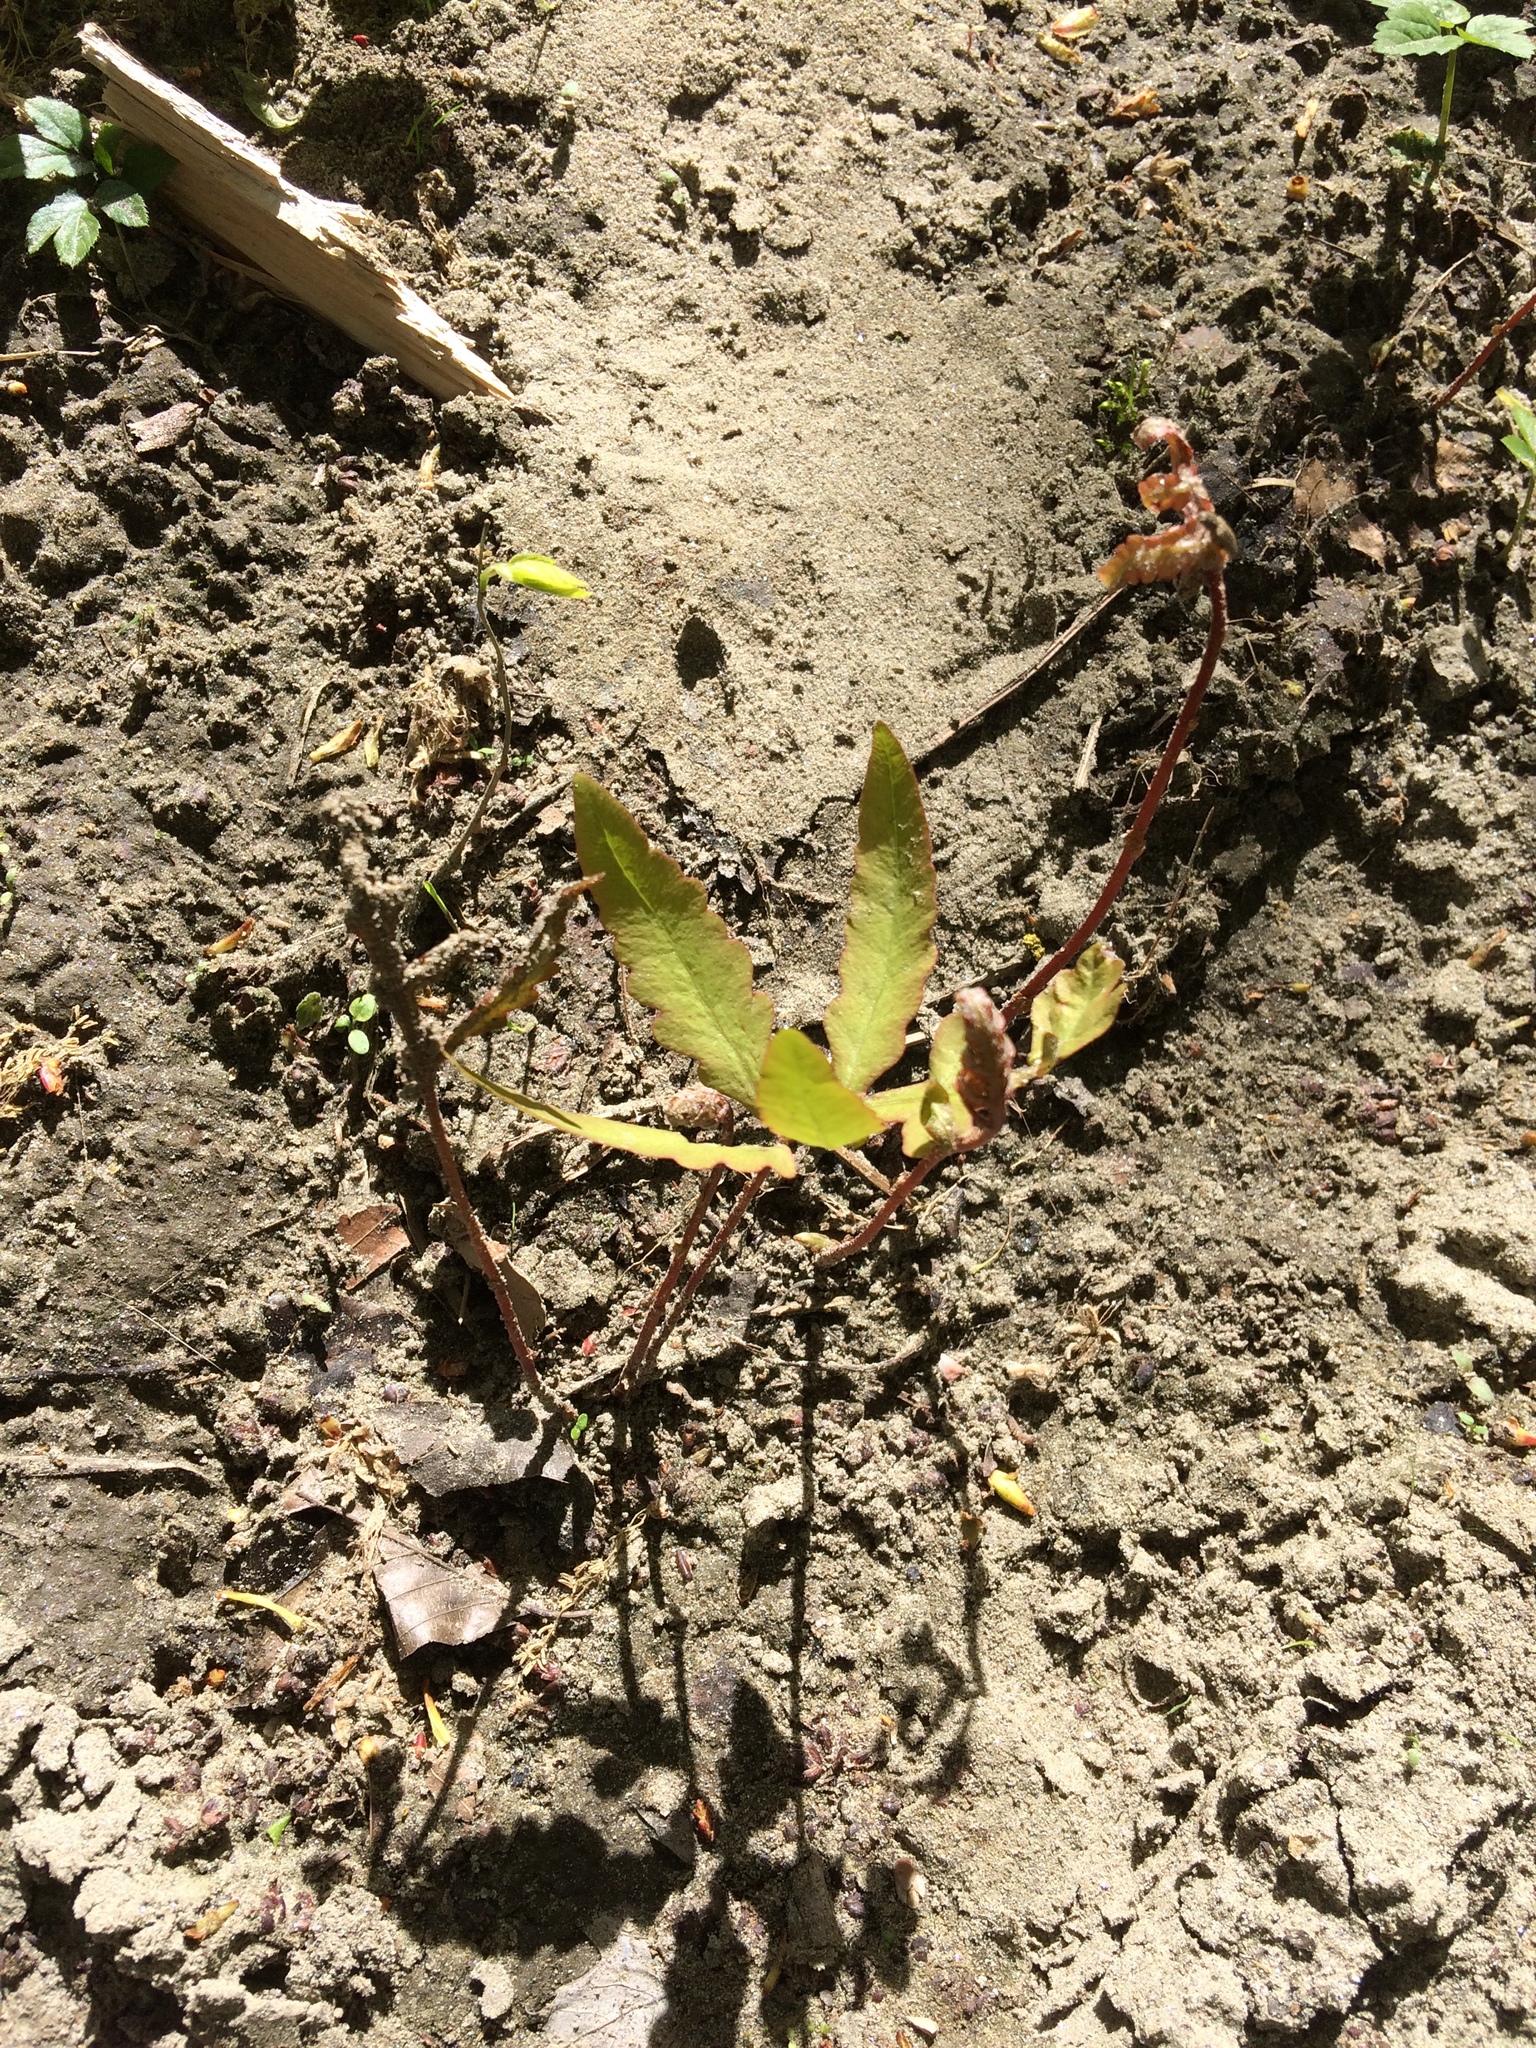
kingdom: Plantae
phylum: Tracheophyta
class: Polypodiopsida
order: Polypodiales
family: Onocleaceae
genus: Onoclea
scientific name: Onoclea sensibilis
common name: Sensitive fern
